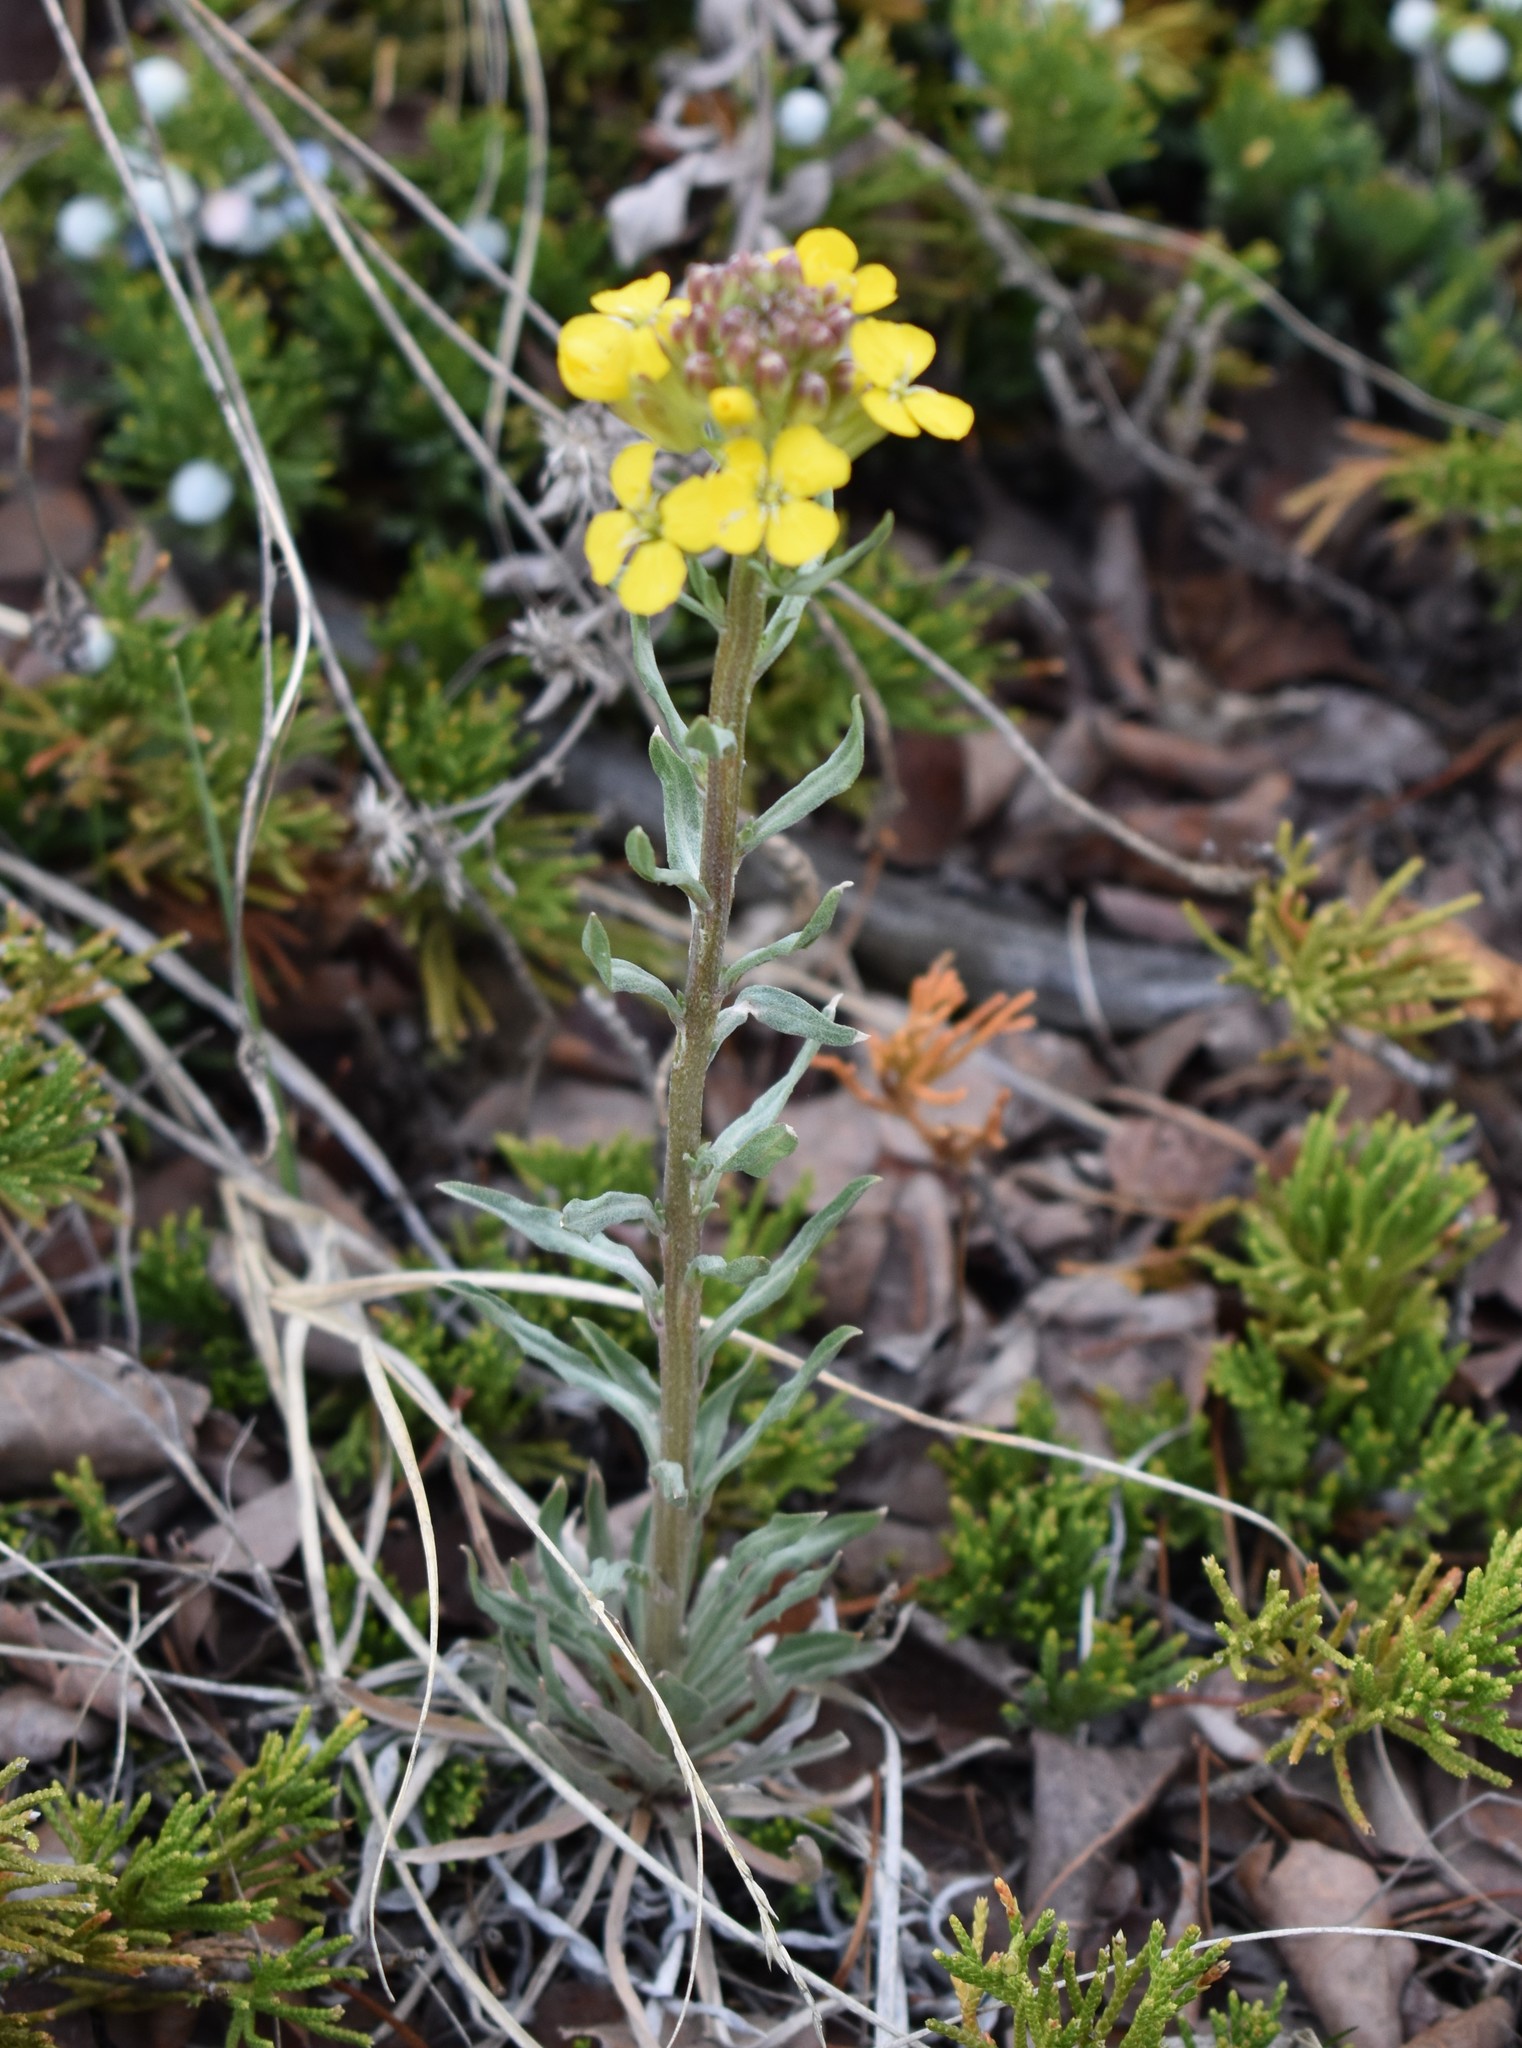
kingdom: Plantae
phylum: Tracheophyta
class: Magnoliopsida
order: Brassicales
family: Brassicaceae
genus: Erysimum
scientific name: Erysimum asperum
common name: Western wallflower
